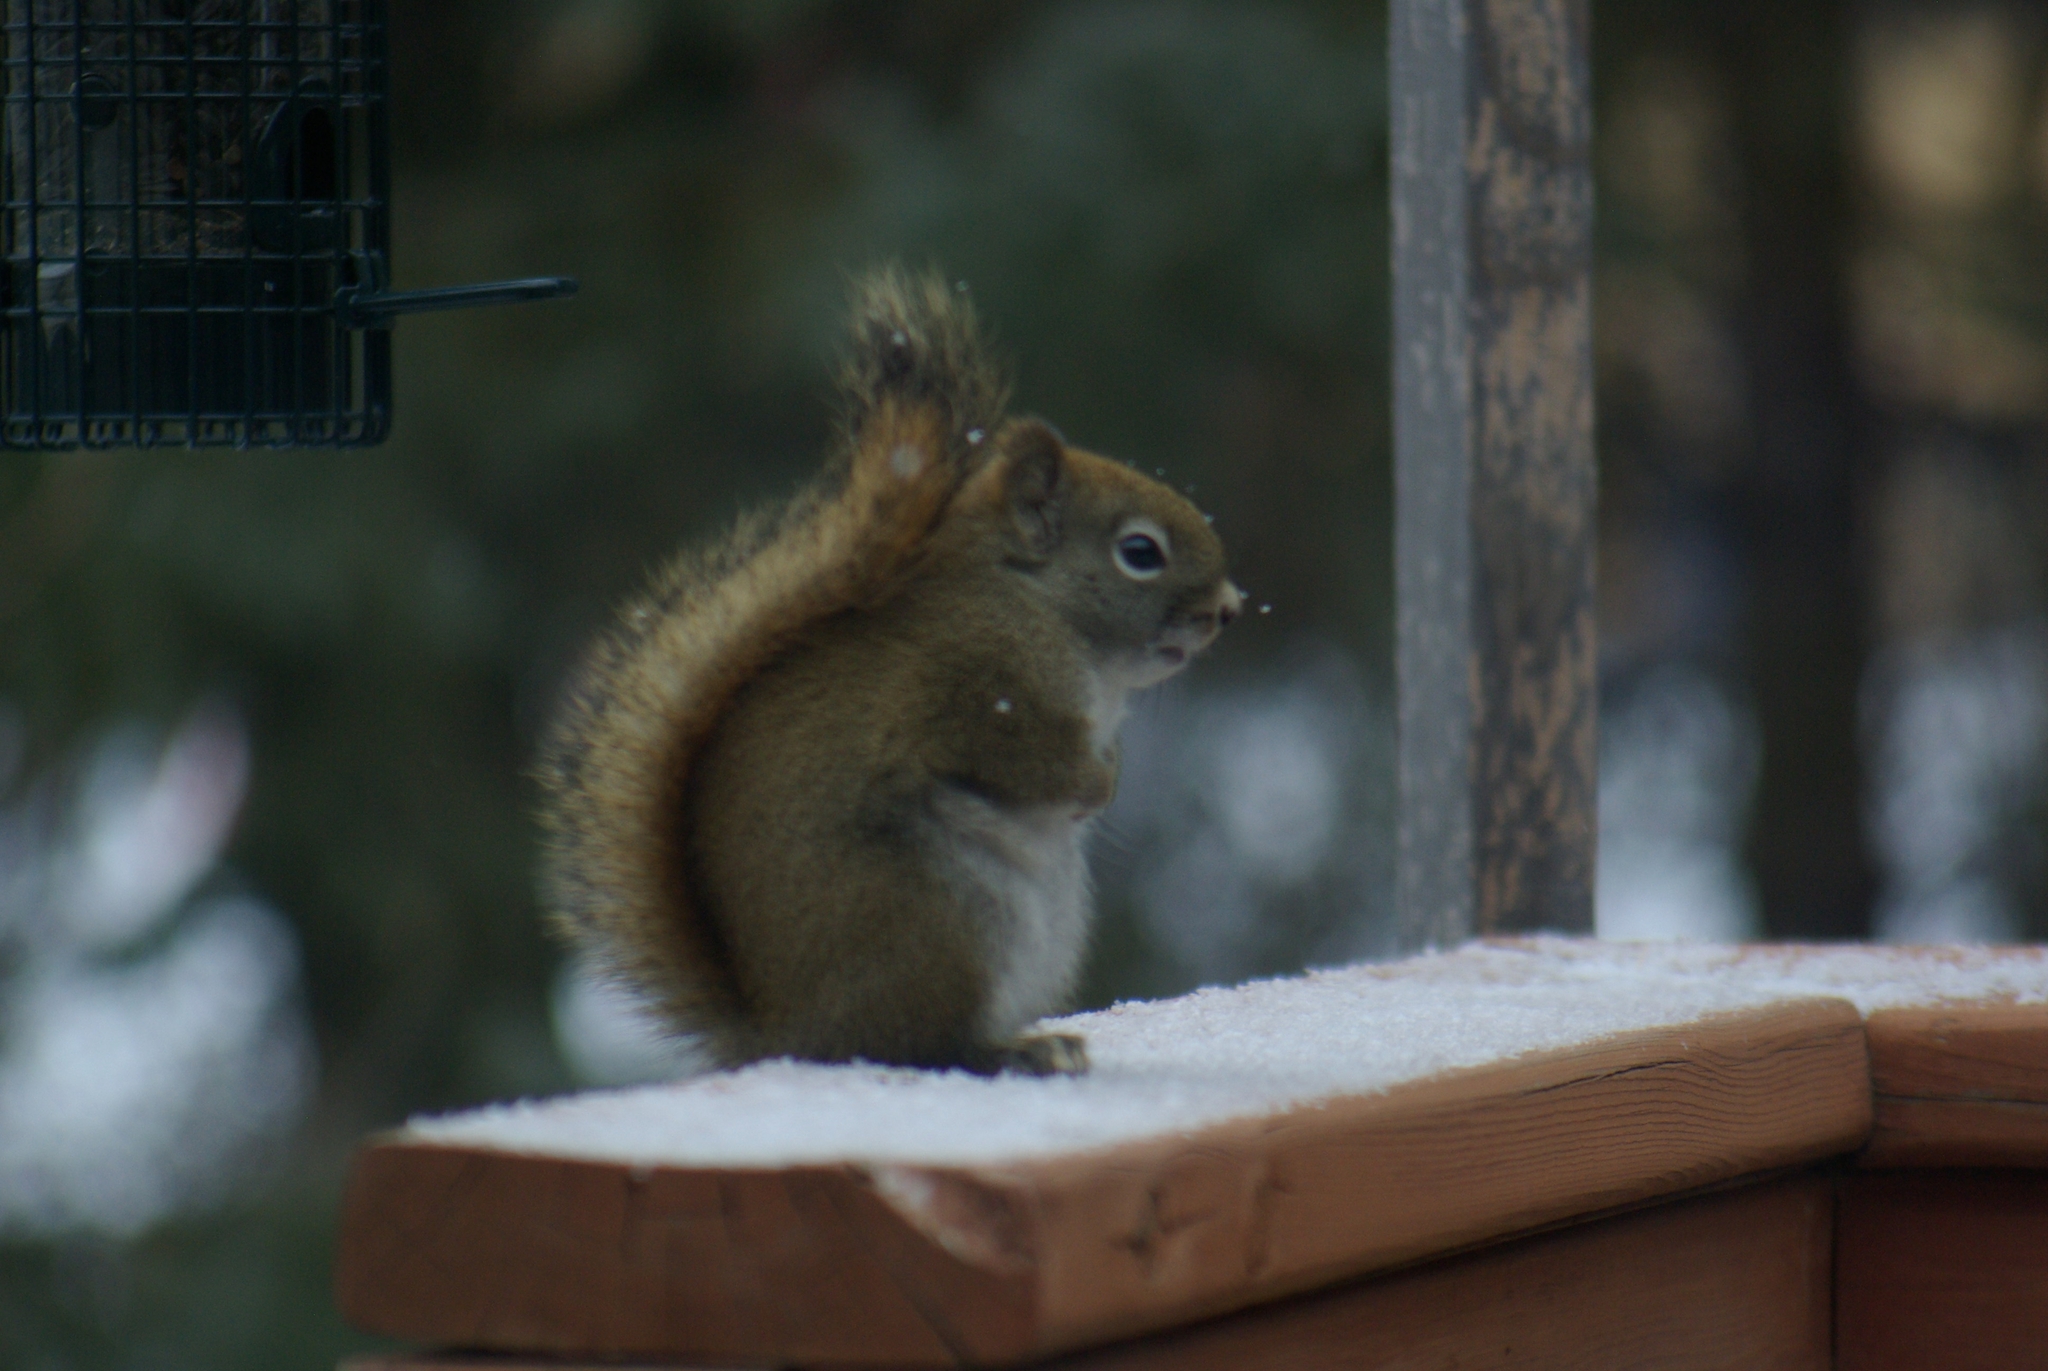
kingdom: Animalia
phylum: Chordata
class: Mammalia
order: Rodentia
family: Sciuridae
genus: Tamiasciurus
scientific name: Tamiasciurus hudsonicus
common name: Red squirrel
